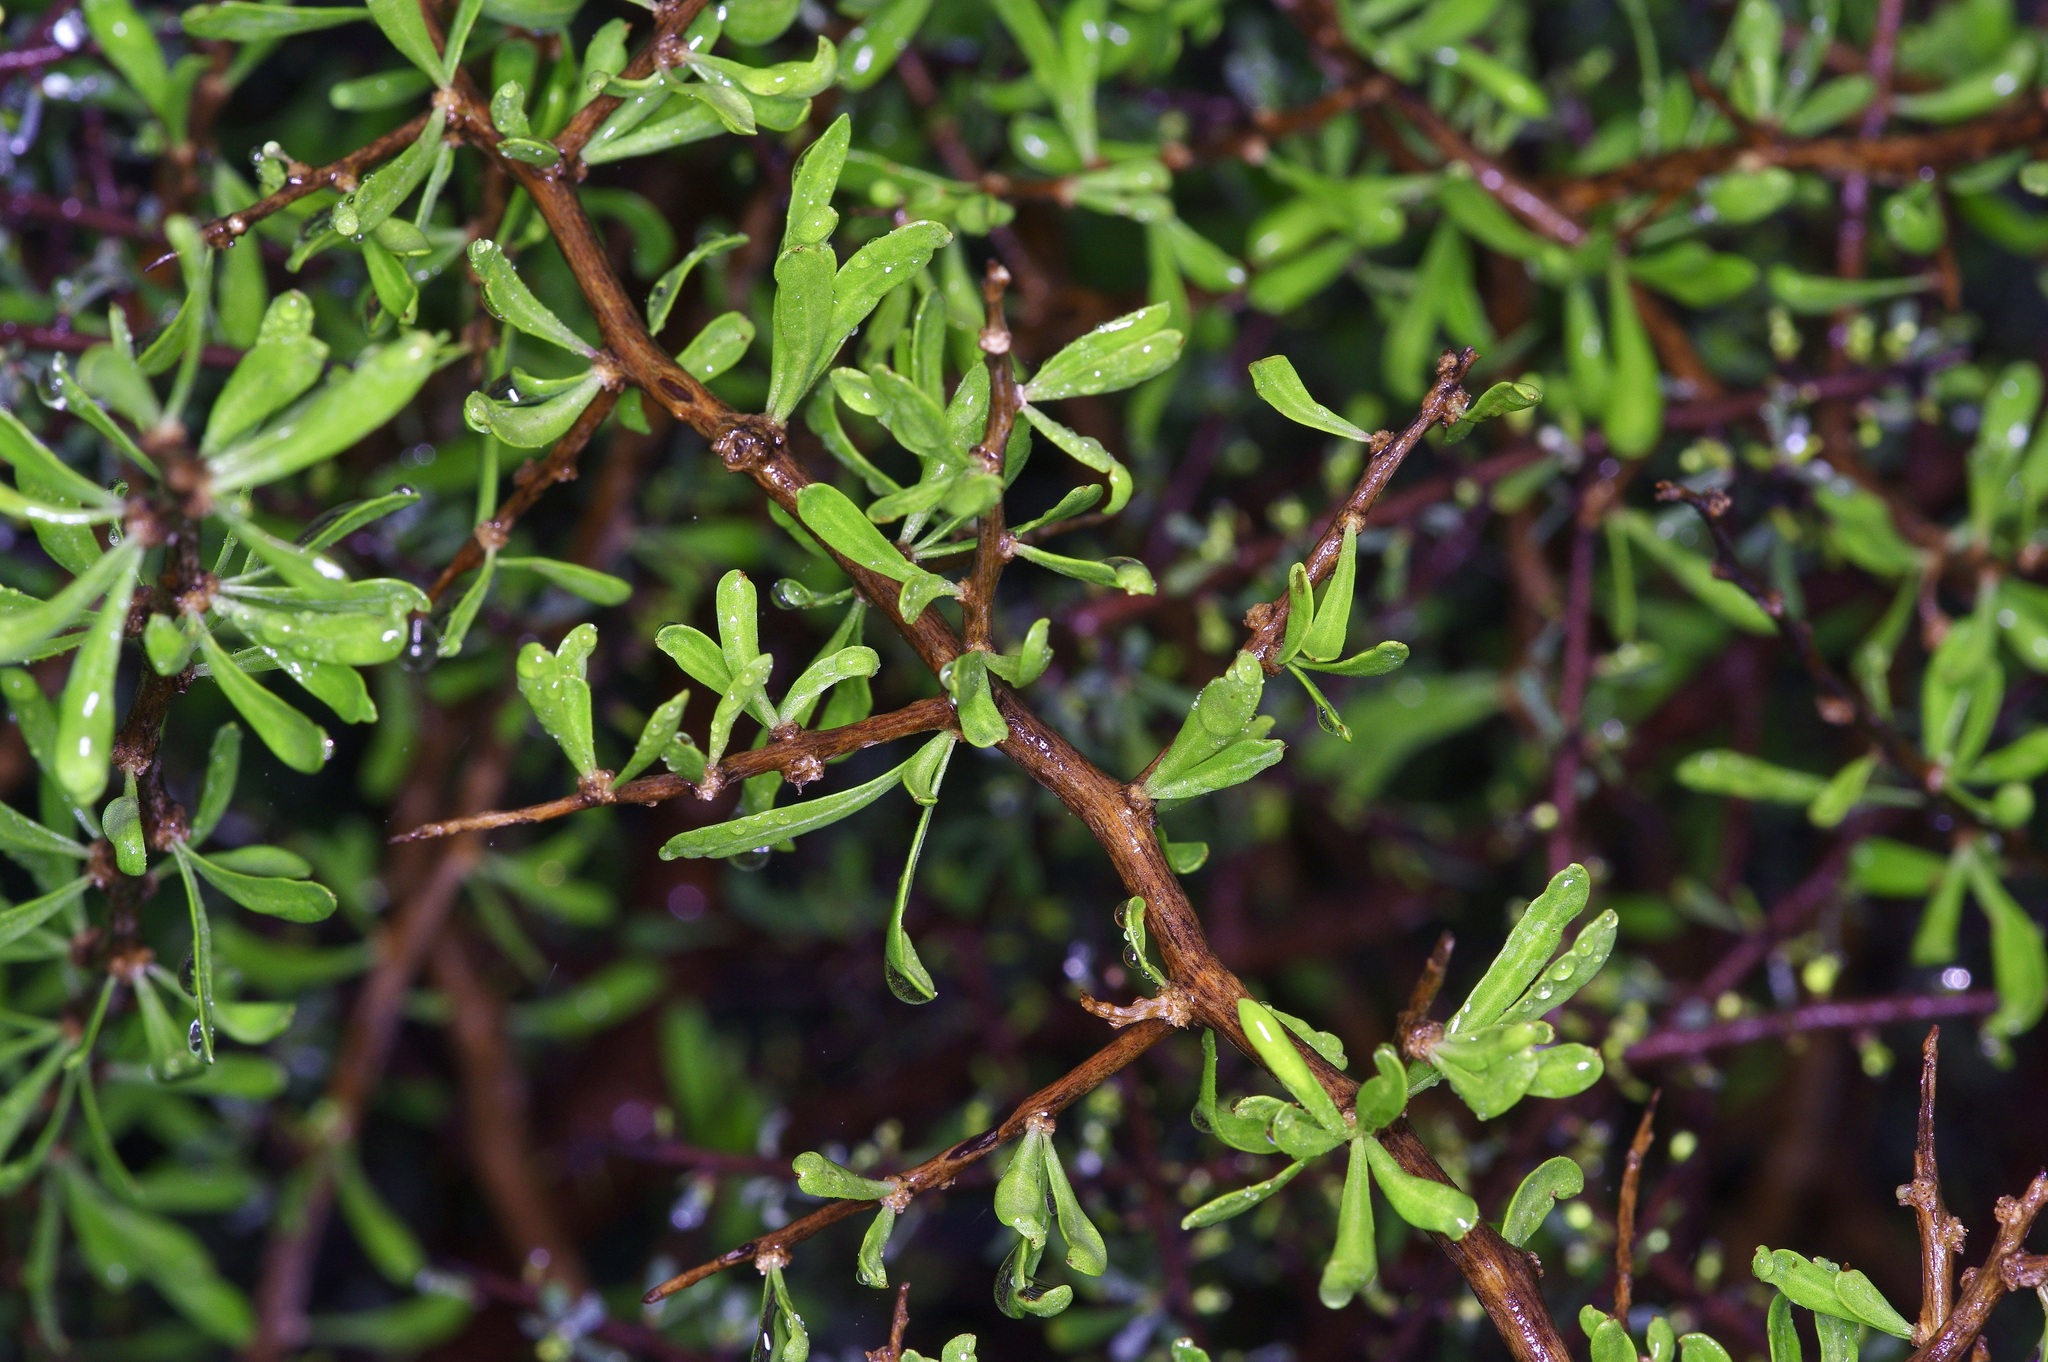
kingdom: Plantae
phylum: Tracheophyta
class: Magnoliopsida
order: Solanales
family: Solanaceae
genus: Lycium
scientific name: Lycium berlandieri
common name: Berlandier wolfberry
